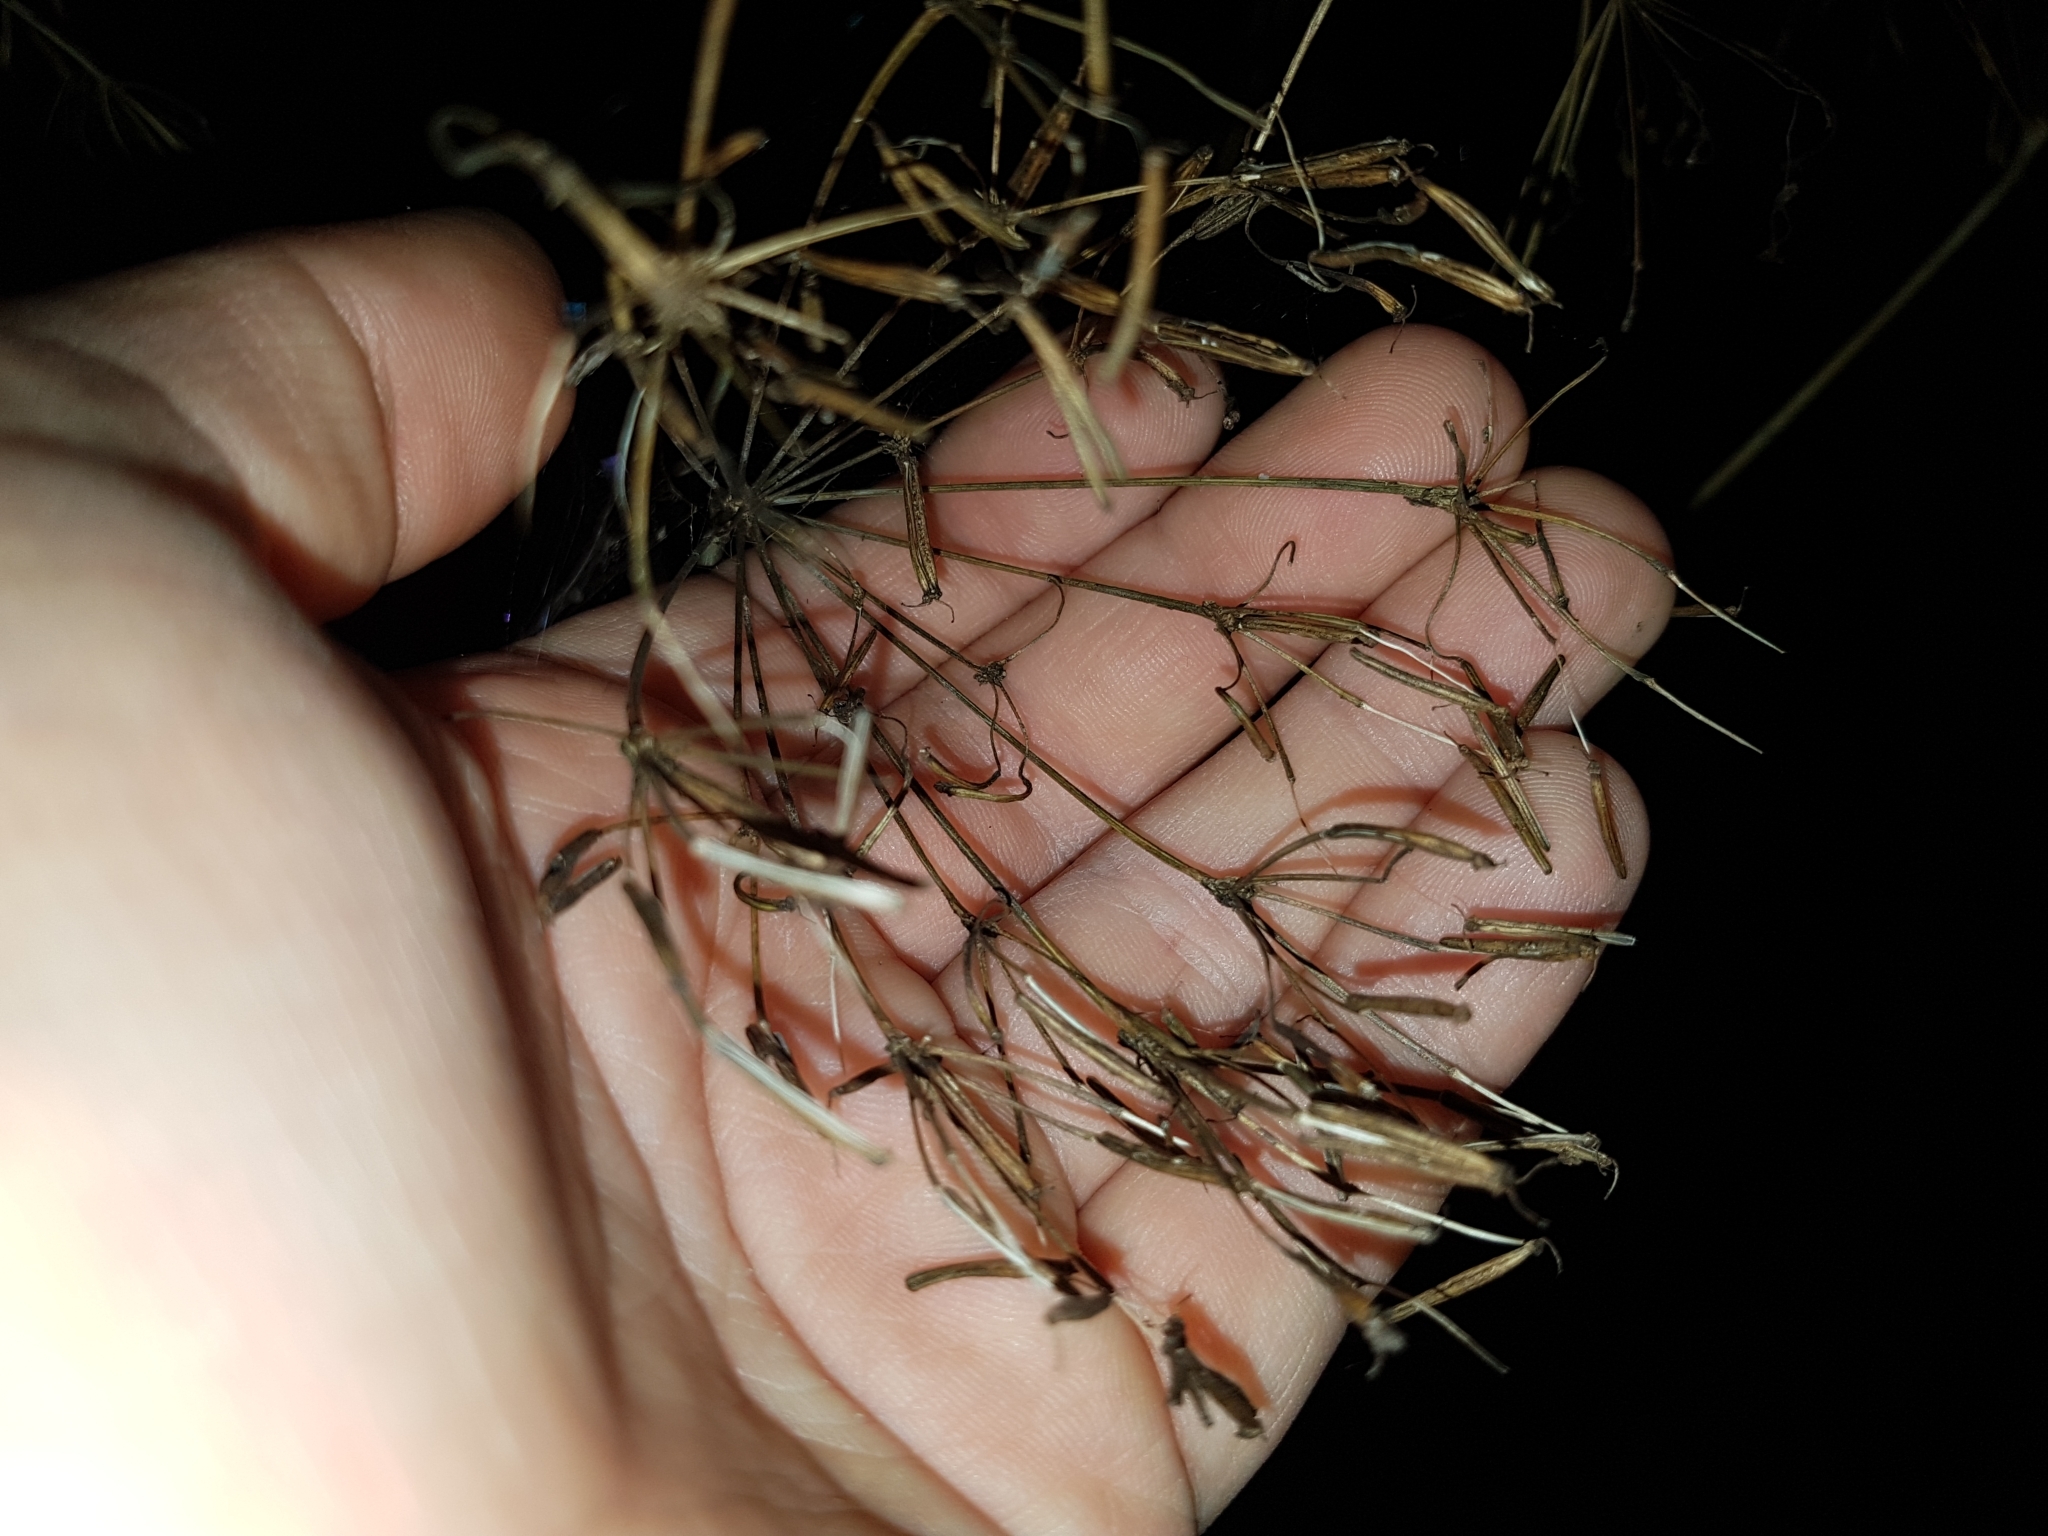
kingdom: Plantae
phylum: Tracheophyta
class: Magnoliopsida
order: Apiales
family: Apiaceae
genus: Chaerophyllum
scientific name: Chaerophyllum aromaticum
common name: Broadleaf chervil
